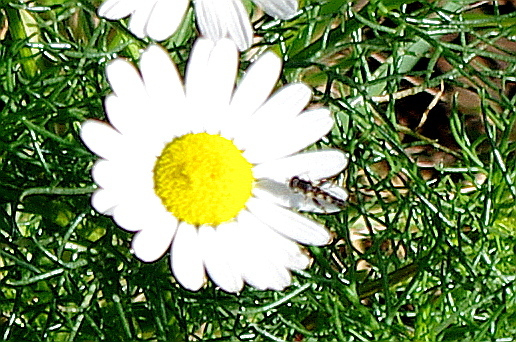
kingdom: Animalia
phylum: Arthropoda
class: Insecta
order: Diptera
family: Syrphidae
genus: Syritta
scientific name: Syritta
